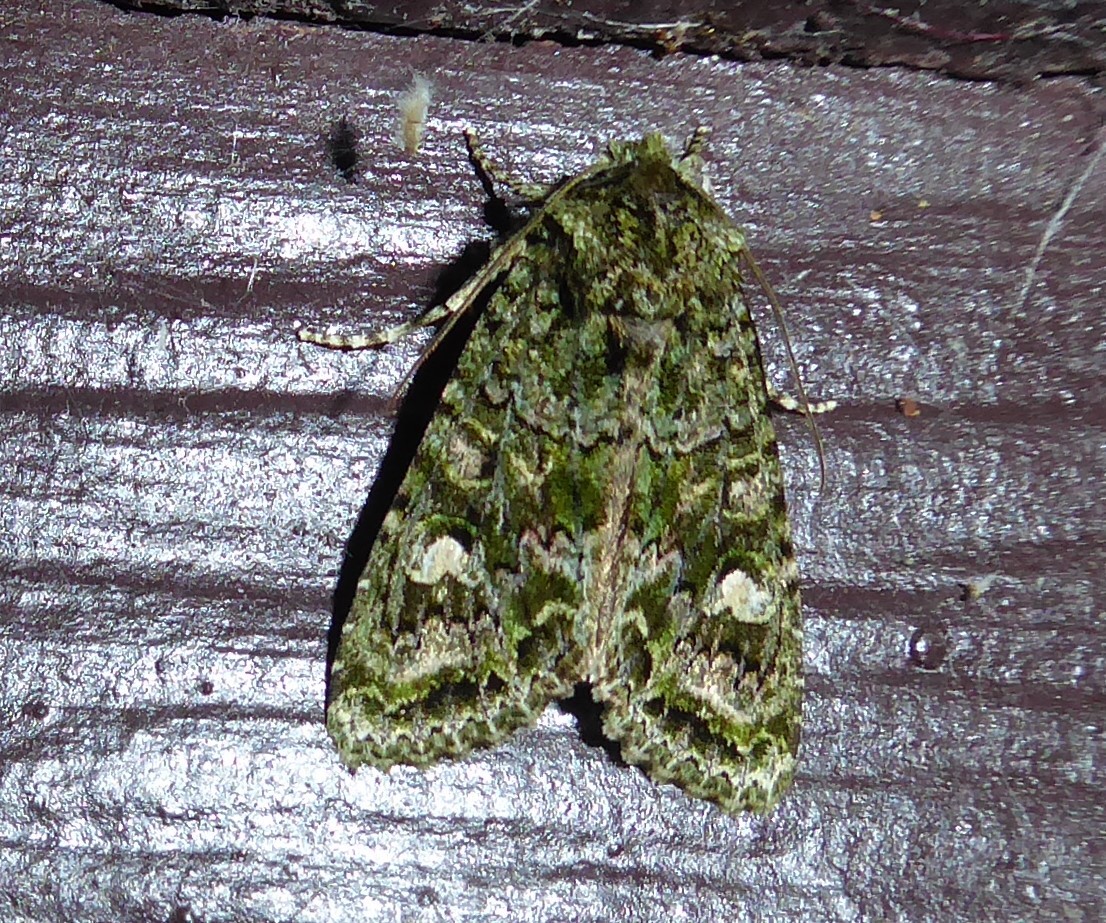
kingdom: Animalia
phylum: Arthropoda
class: Insecta
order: Lepidoptera
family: Noctuidae
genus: Ichneutica
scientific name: Ichneutica
